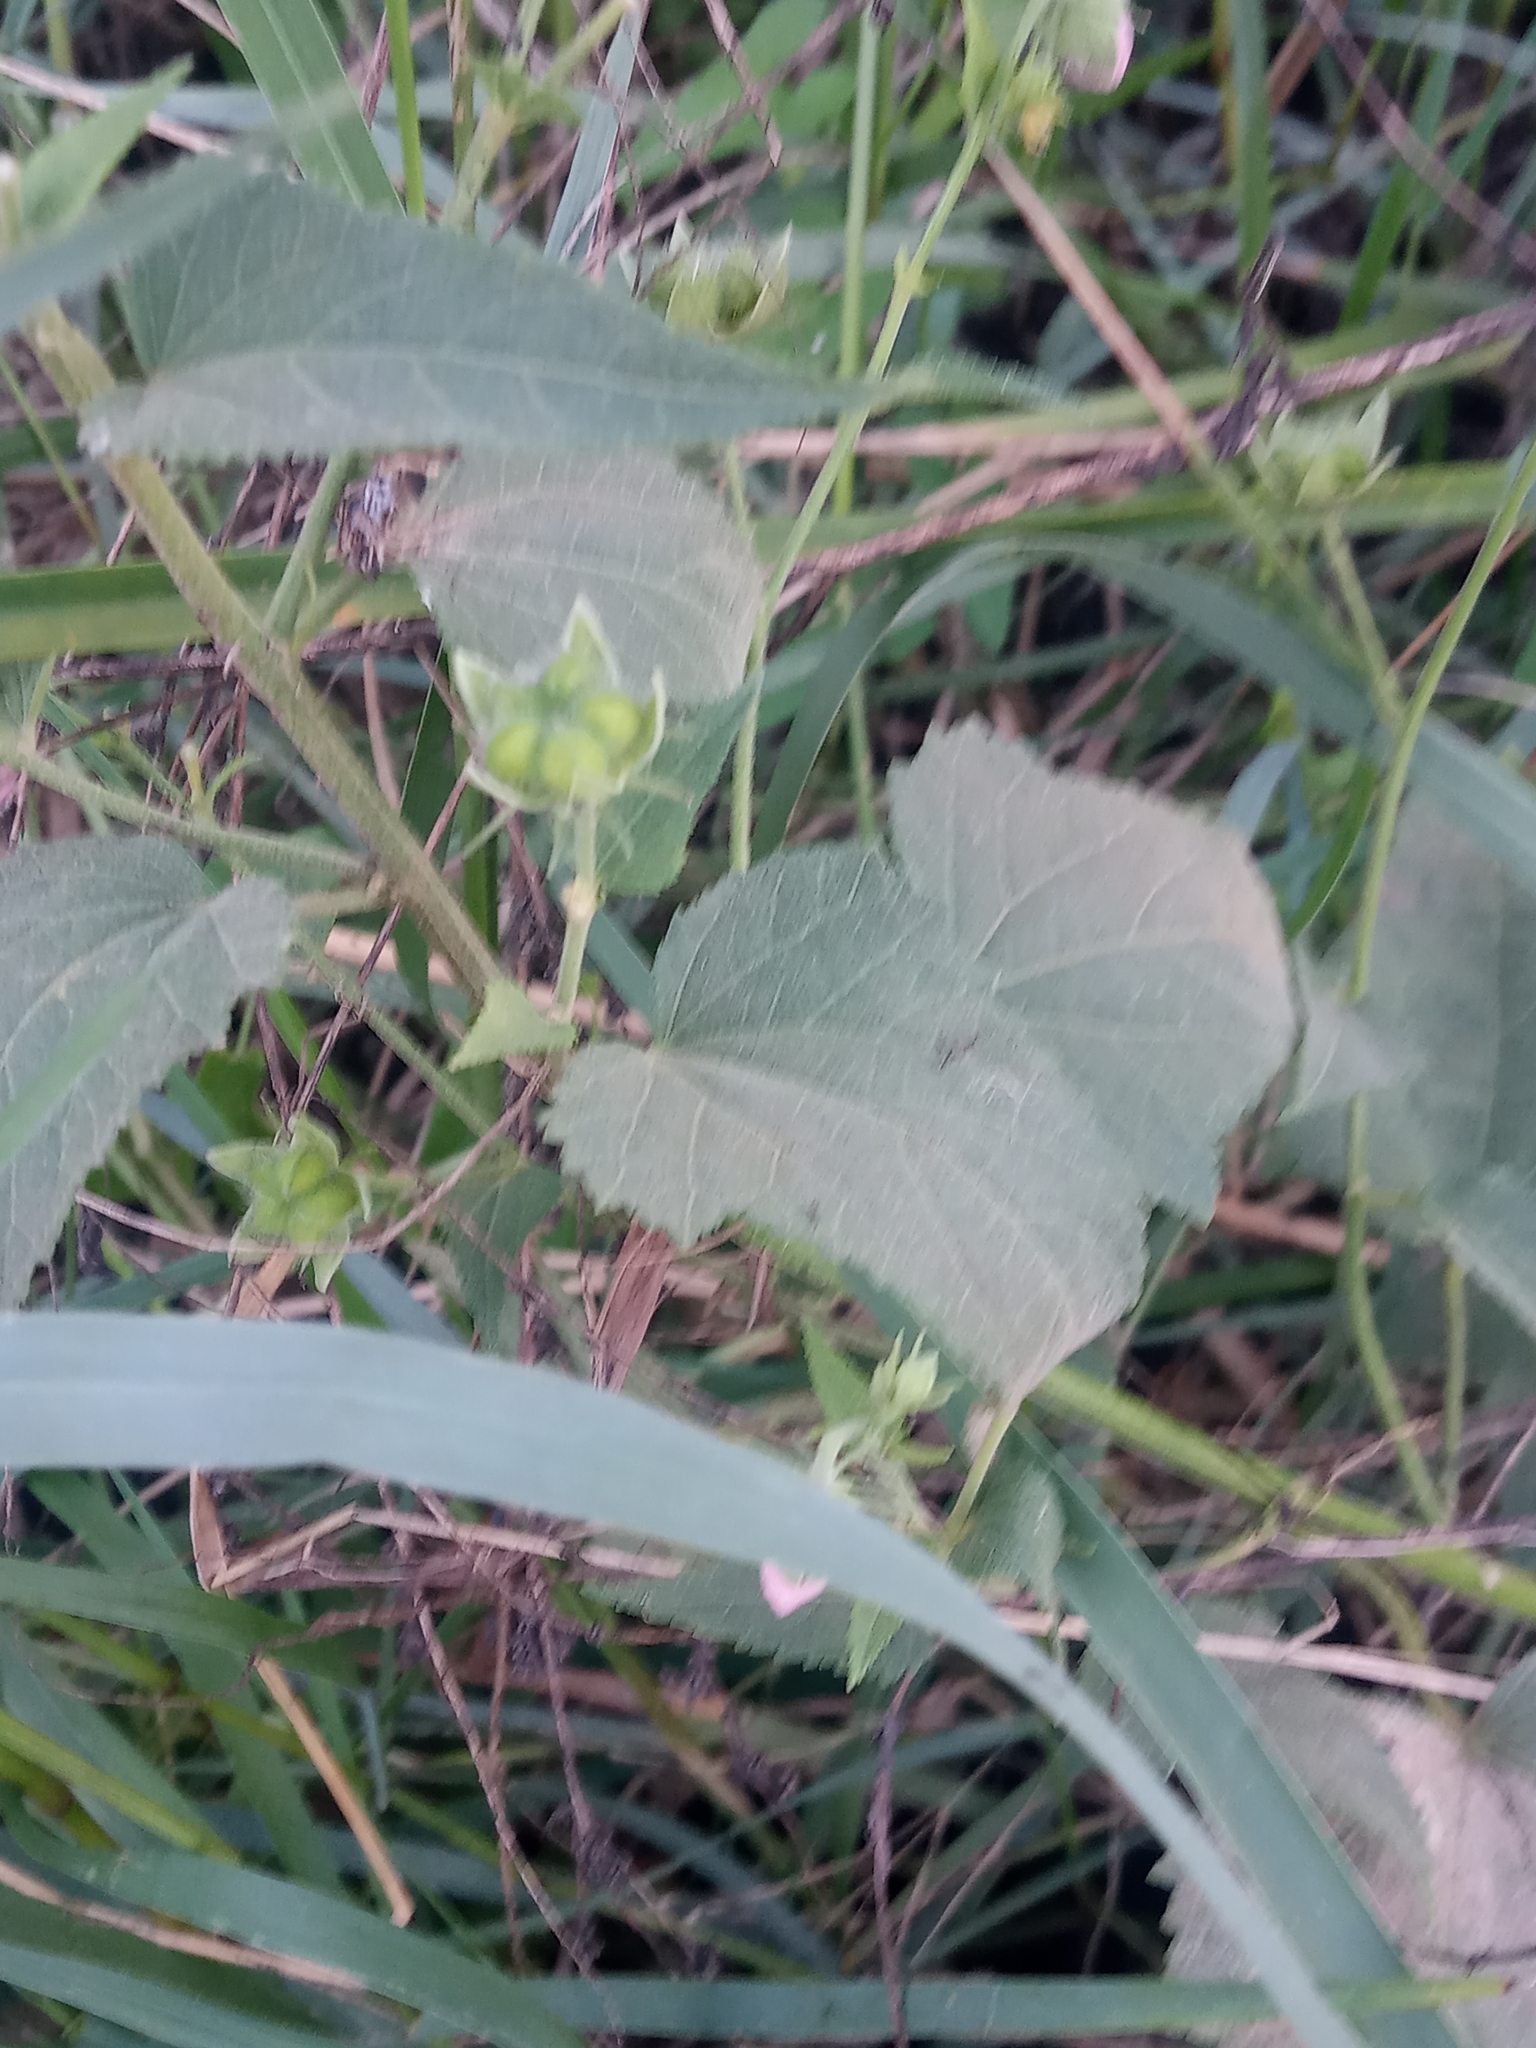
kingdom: Plantae
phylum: Tracheophyta
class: Magnoliopsida
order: Malvales
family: Malvaceae
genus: Kosteletzkya
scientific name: Kosteletzkya pentacarpos
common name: Virginia saltmarsh mallow
